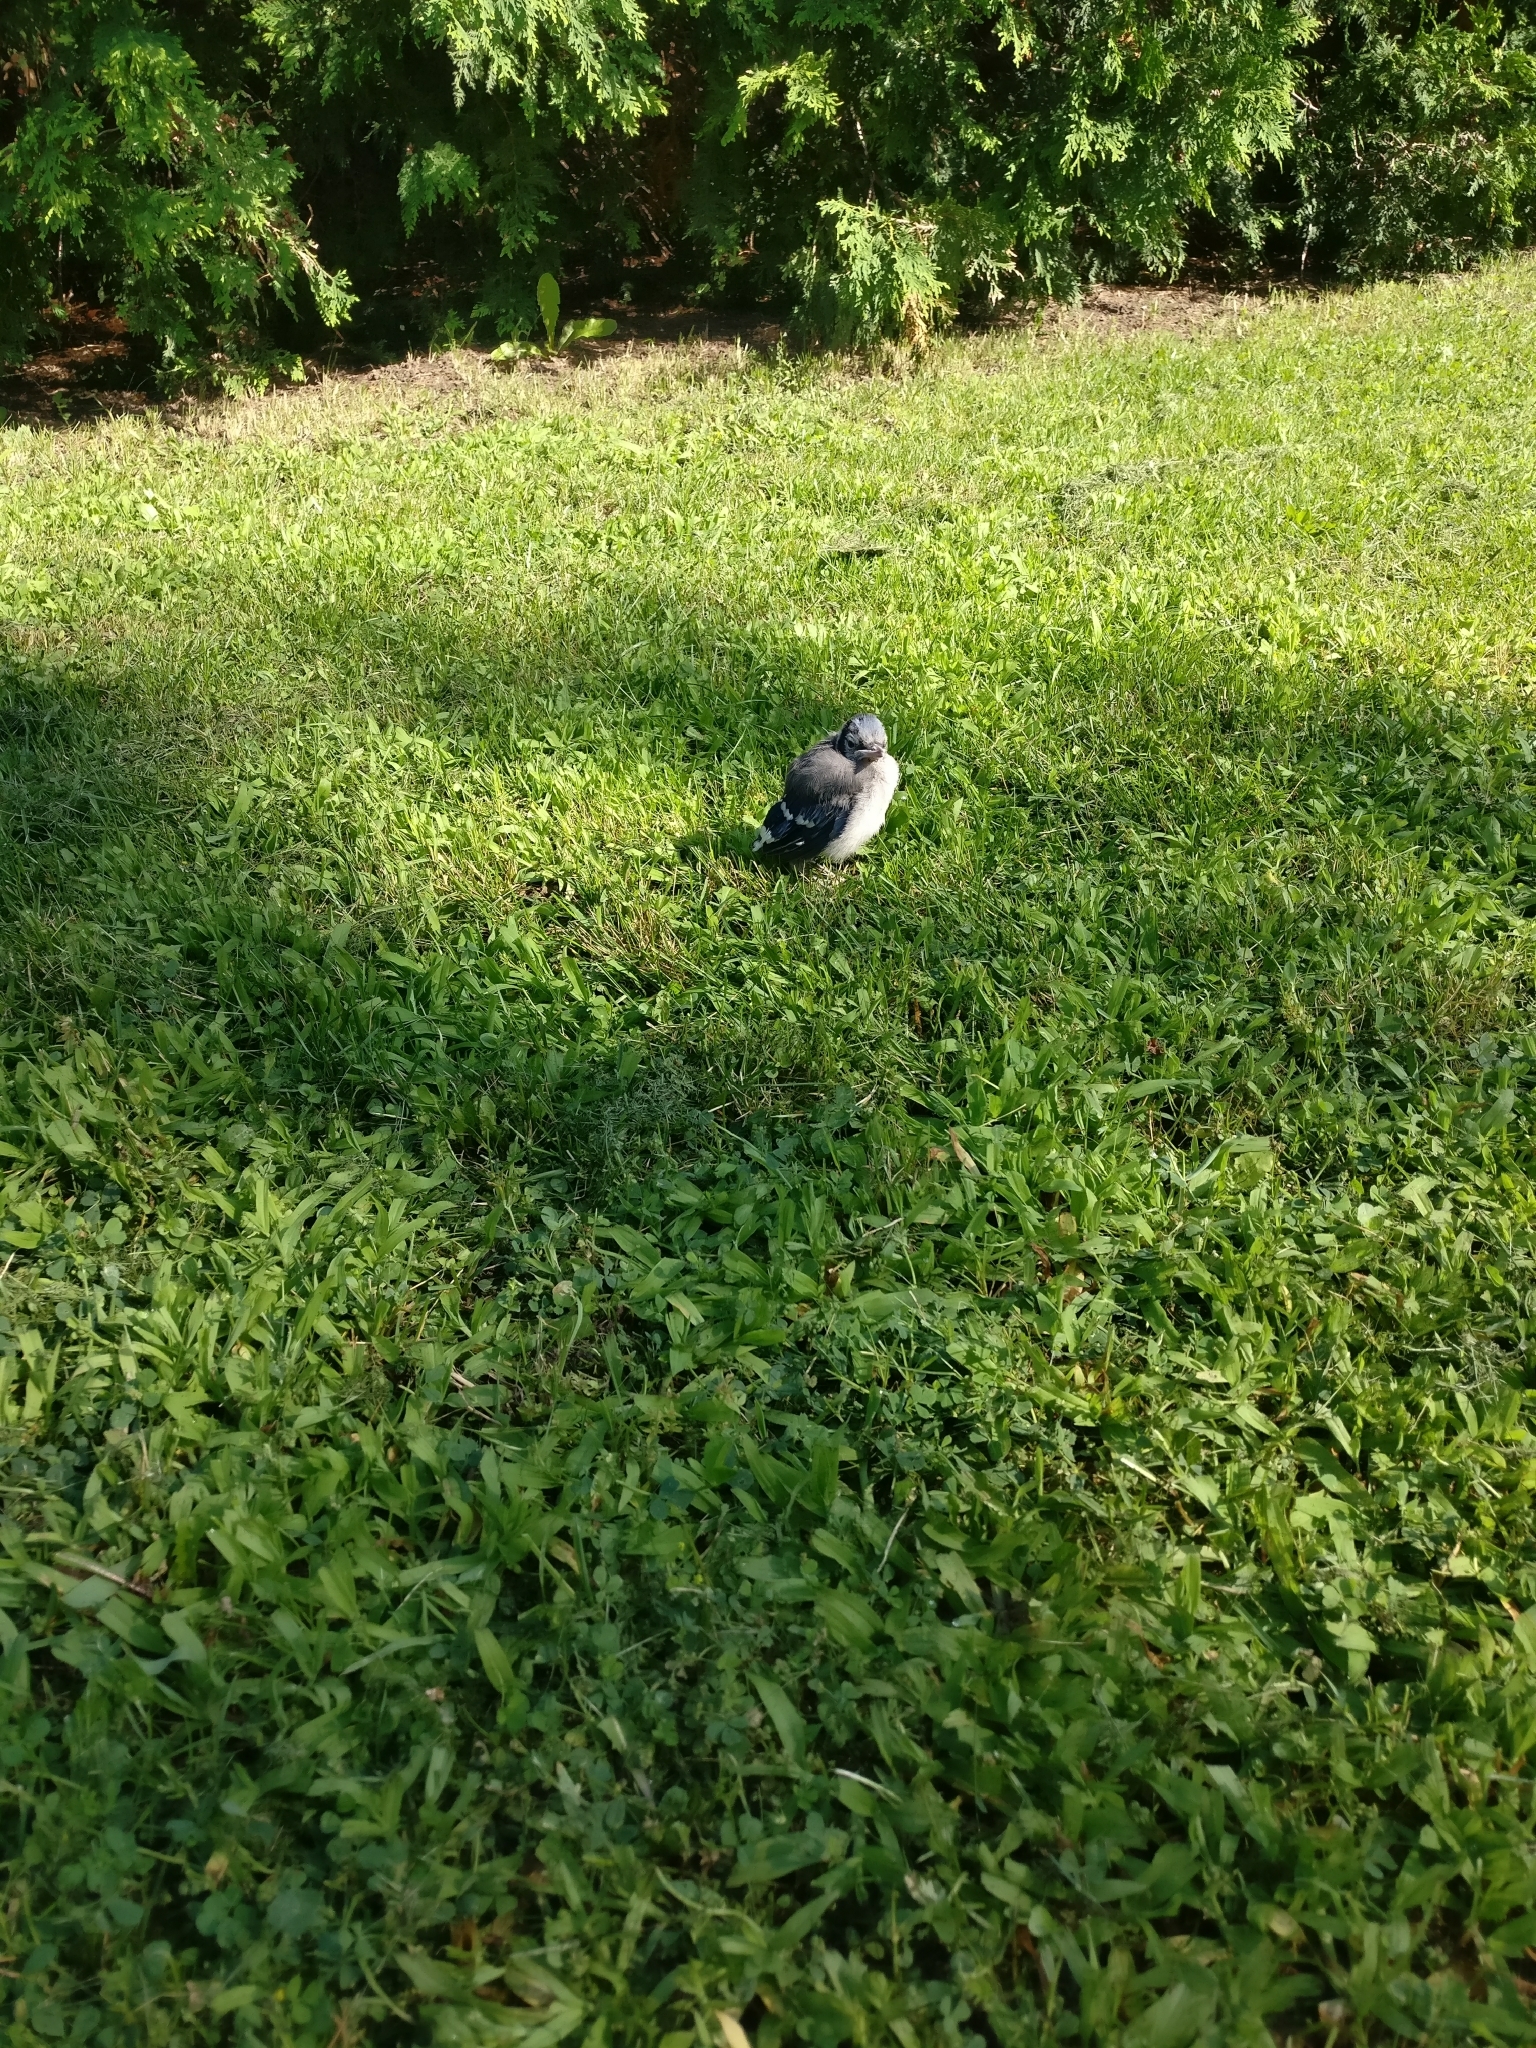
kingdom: Animalia
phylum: Chordata
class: Aves
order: Passeriformes
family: Corvidae
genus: Cyanocitta
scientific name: Cyanocitta cristata
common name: Blue jay
